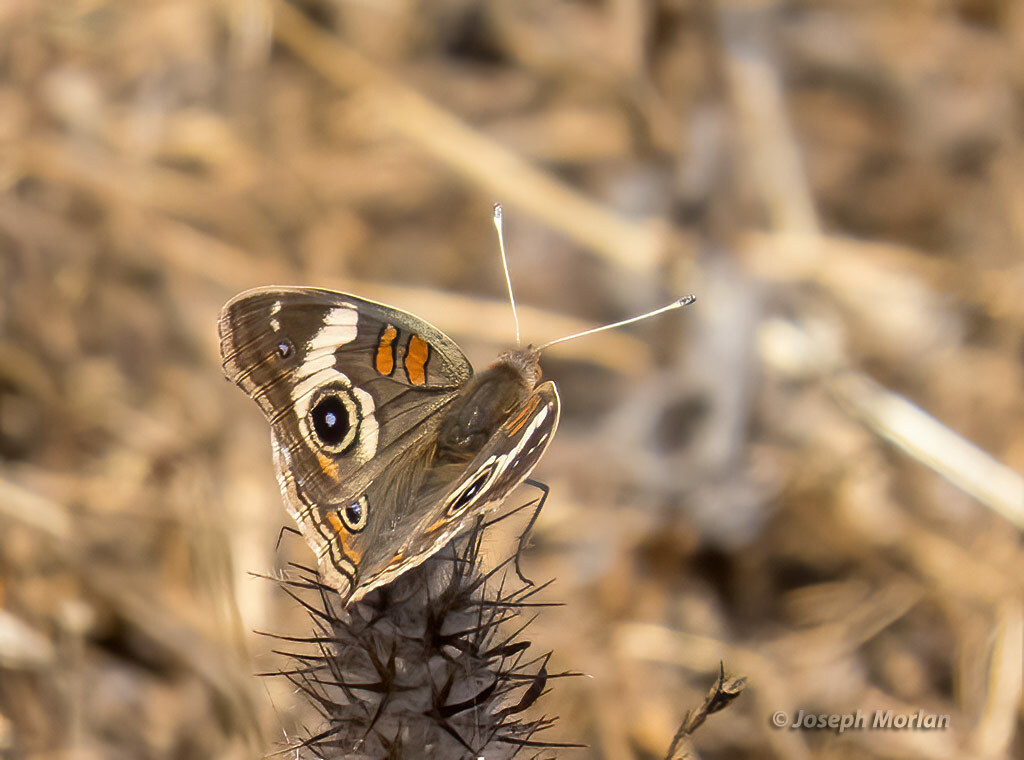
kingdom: Animalia
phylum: Arthropoda
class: Insecta
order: Lepidoptera
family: Nymphalidae
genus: Junonia
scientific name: Junonia grisea
